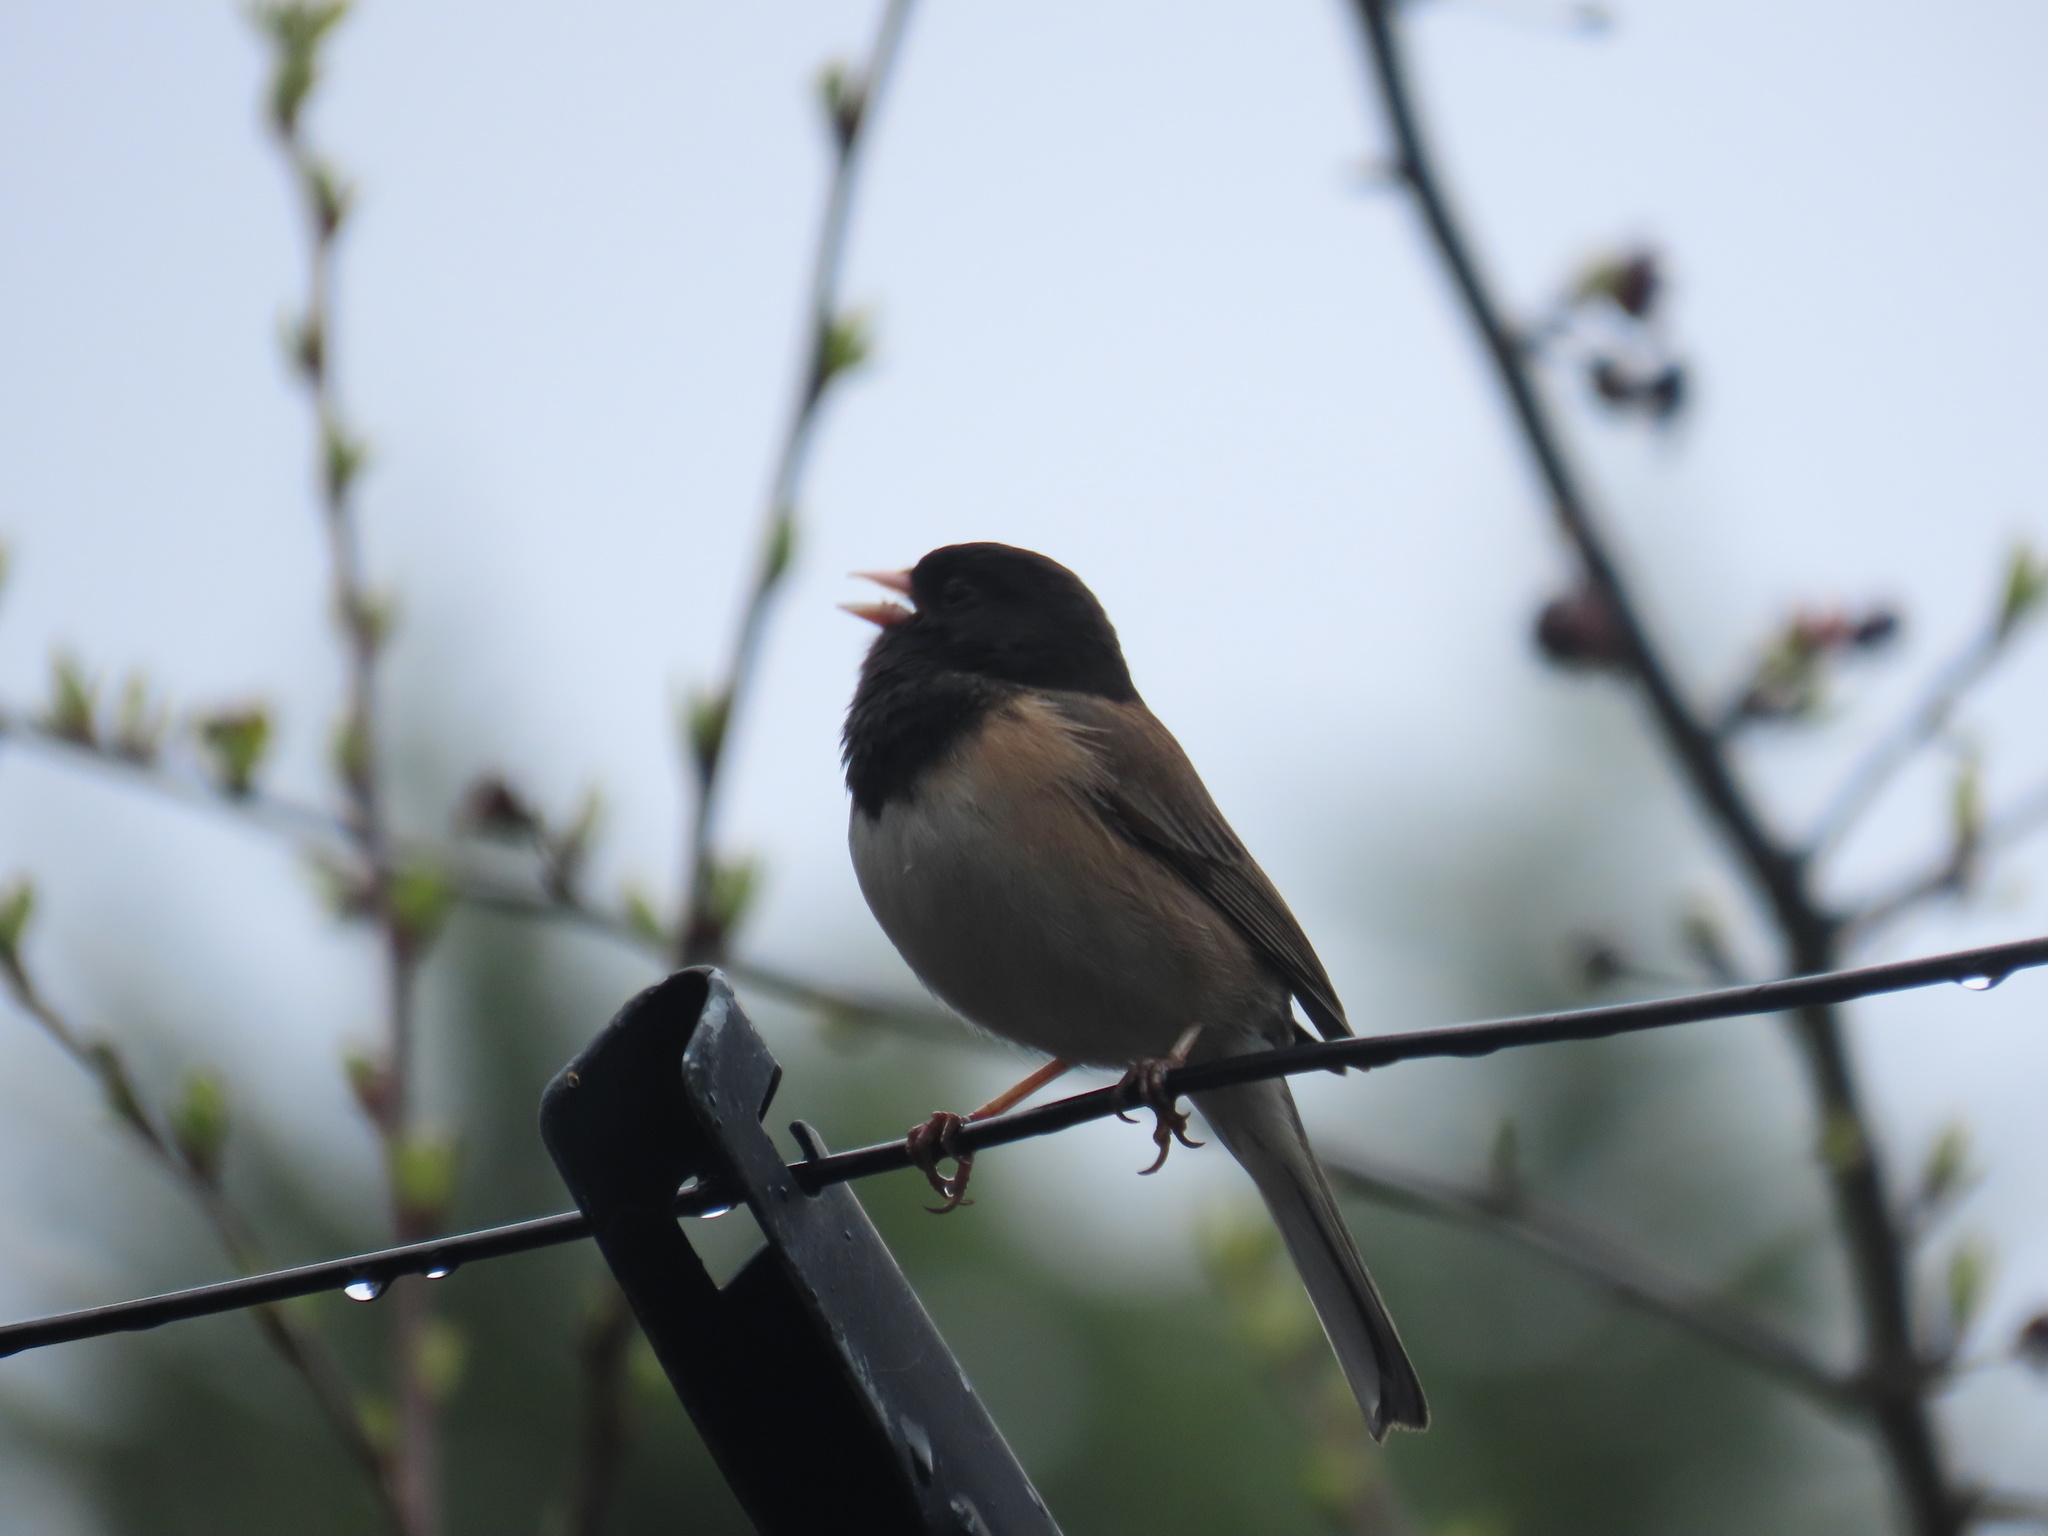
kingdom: Animalia
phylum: Chordata
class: Aves
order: Passeriformes
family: Passerellidae
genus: Junco
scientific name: Junco hyemalis
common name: Dark-eyed junco
